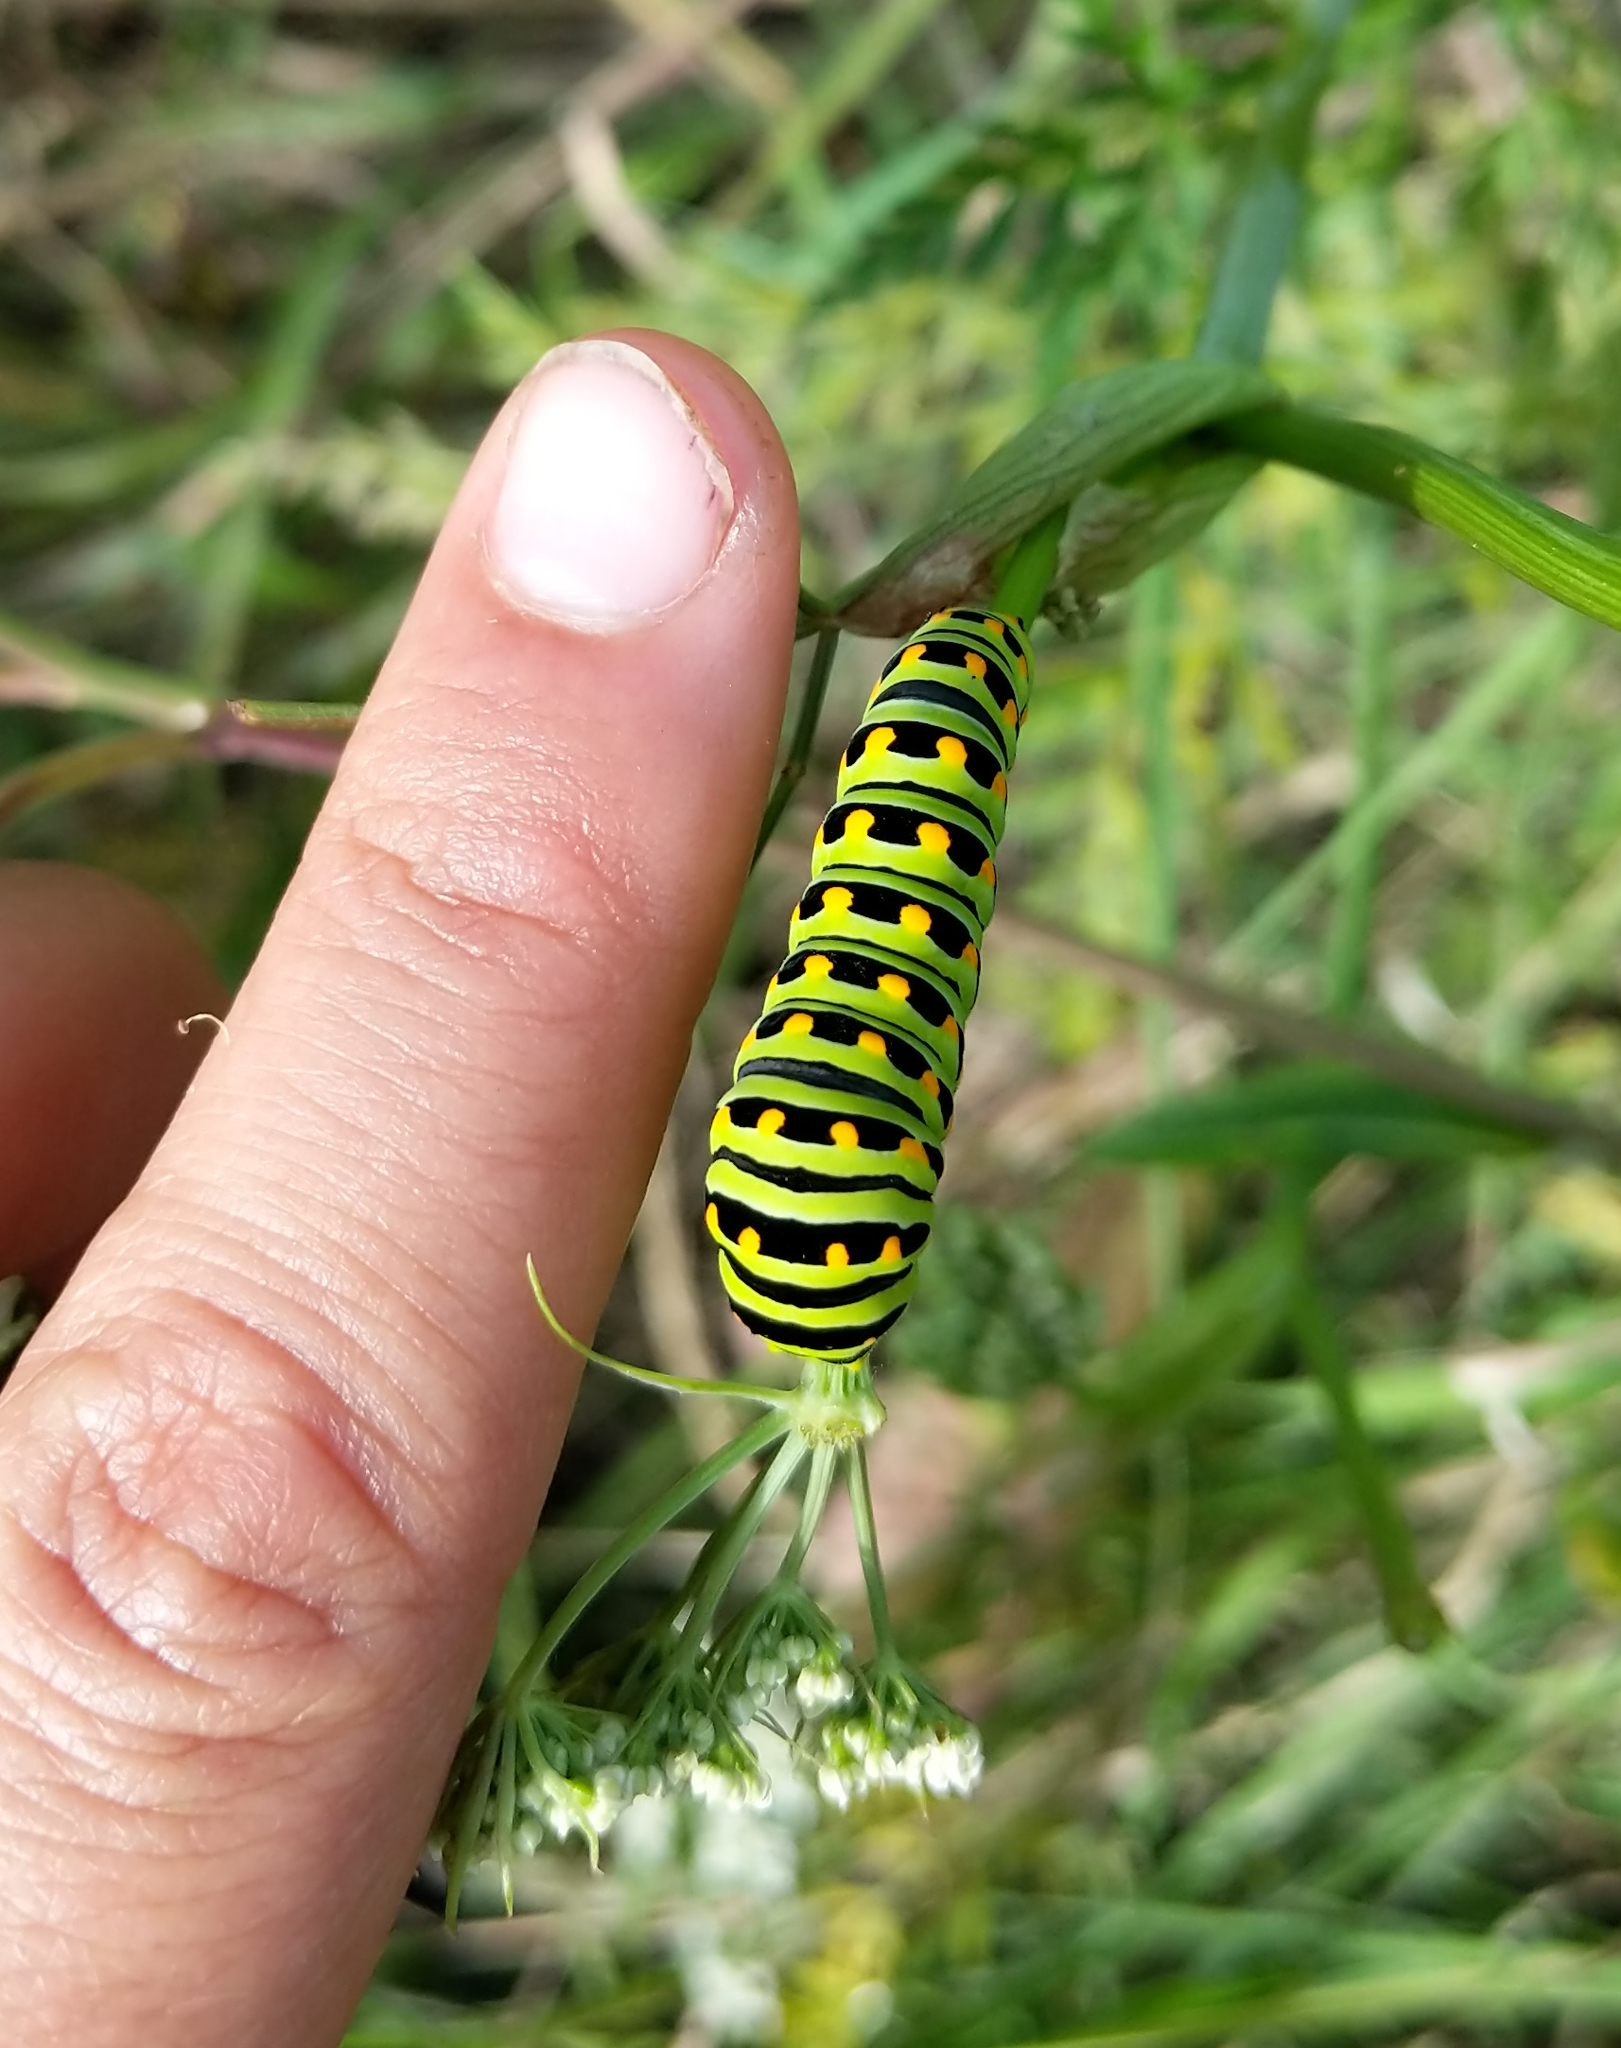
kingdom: Animalia
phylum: Arthropoda
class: Insecta
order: Lepidoptera
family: Papilionidae
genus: Papilio
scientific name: Papilio zelicaon
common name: Anise swallowtail
